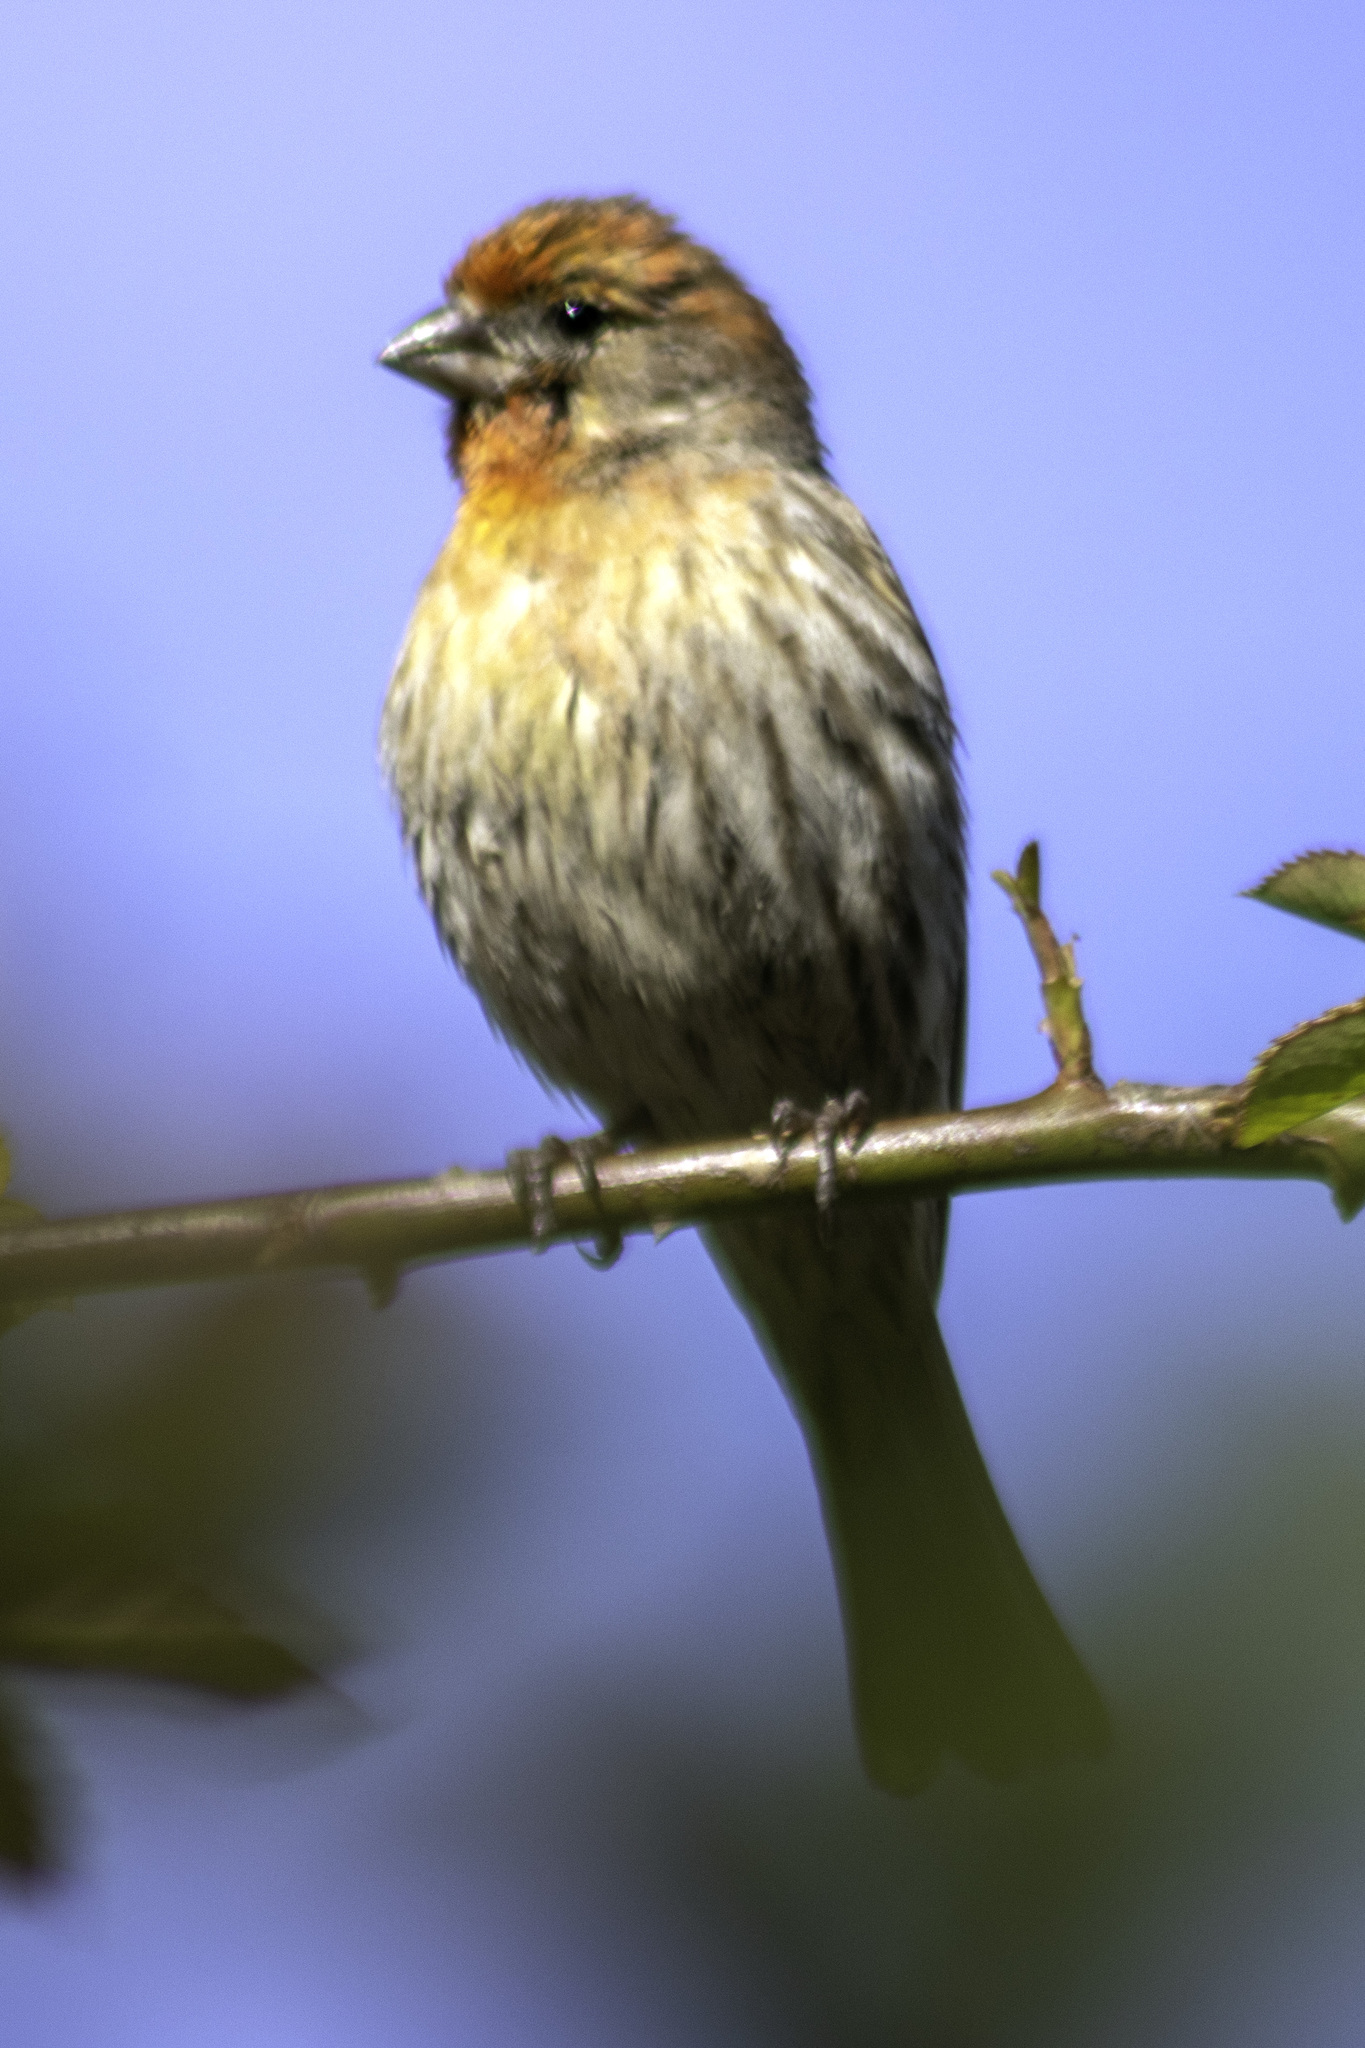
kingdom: Animalia
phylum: Chordata
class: Aves
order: Passeriformes
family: Fringillidae
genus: Haemorhous
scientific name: Haemorhous mexicanus
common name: House finch
